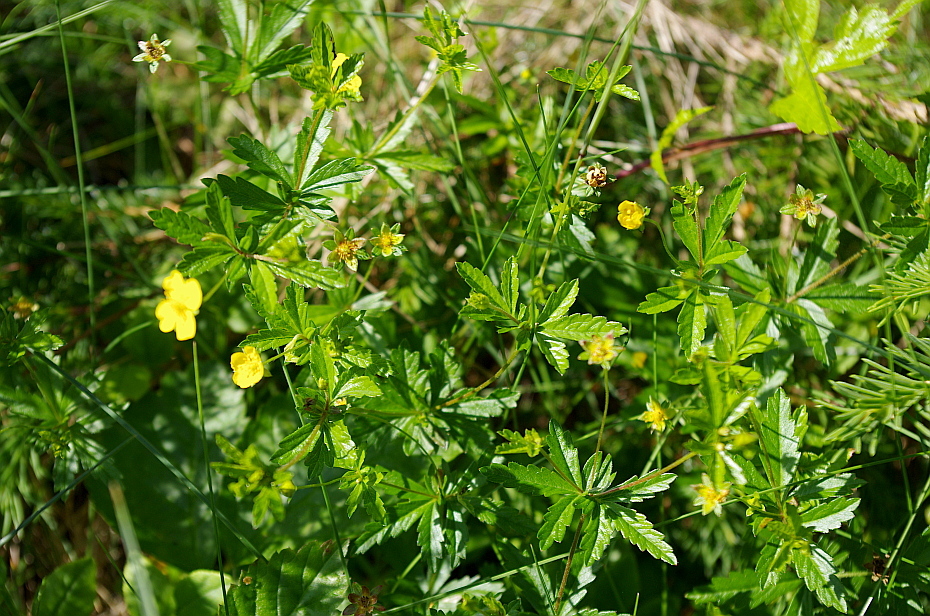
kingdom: Plantae
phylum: Tracheophyta
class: Magnoliopsida
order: Rosales
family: Rosaceae
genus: Potentilla
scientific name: Potentilla erecta
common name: Tormentil
